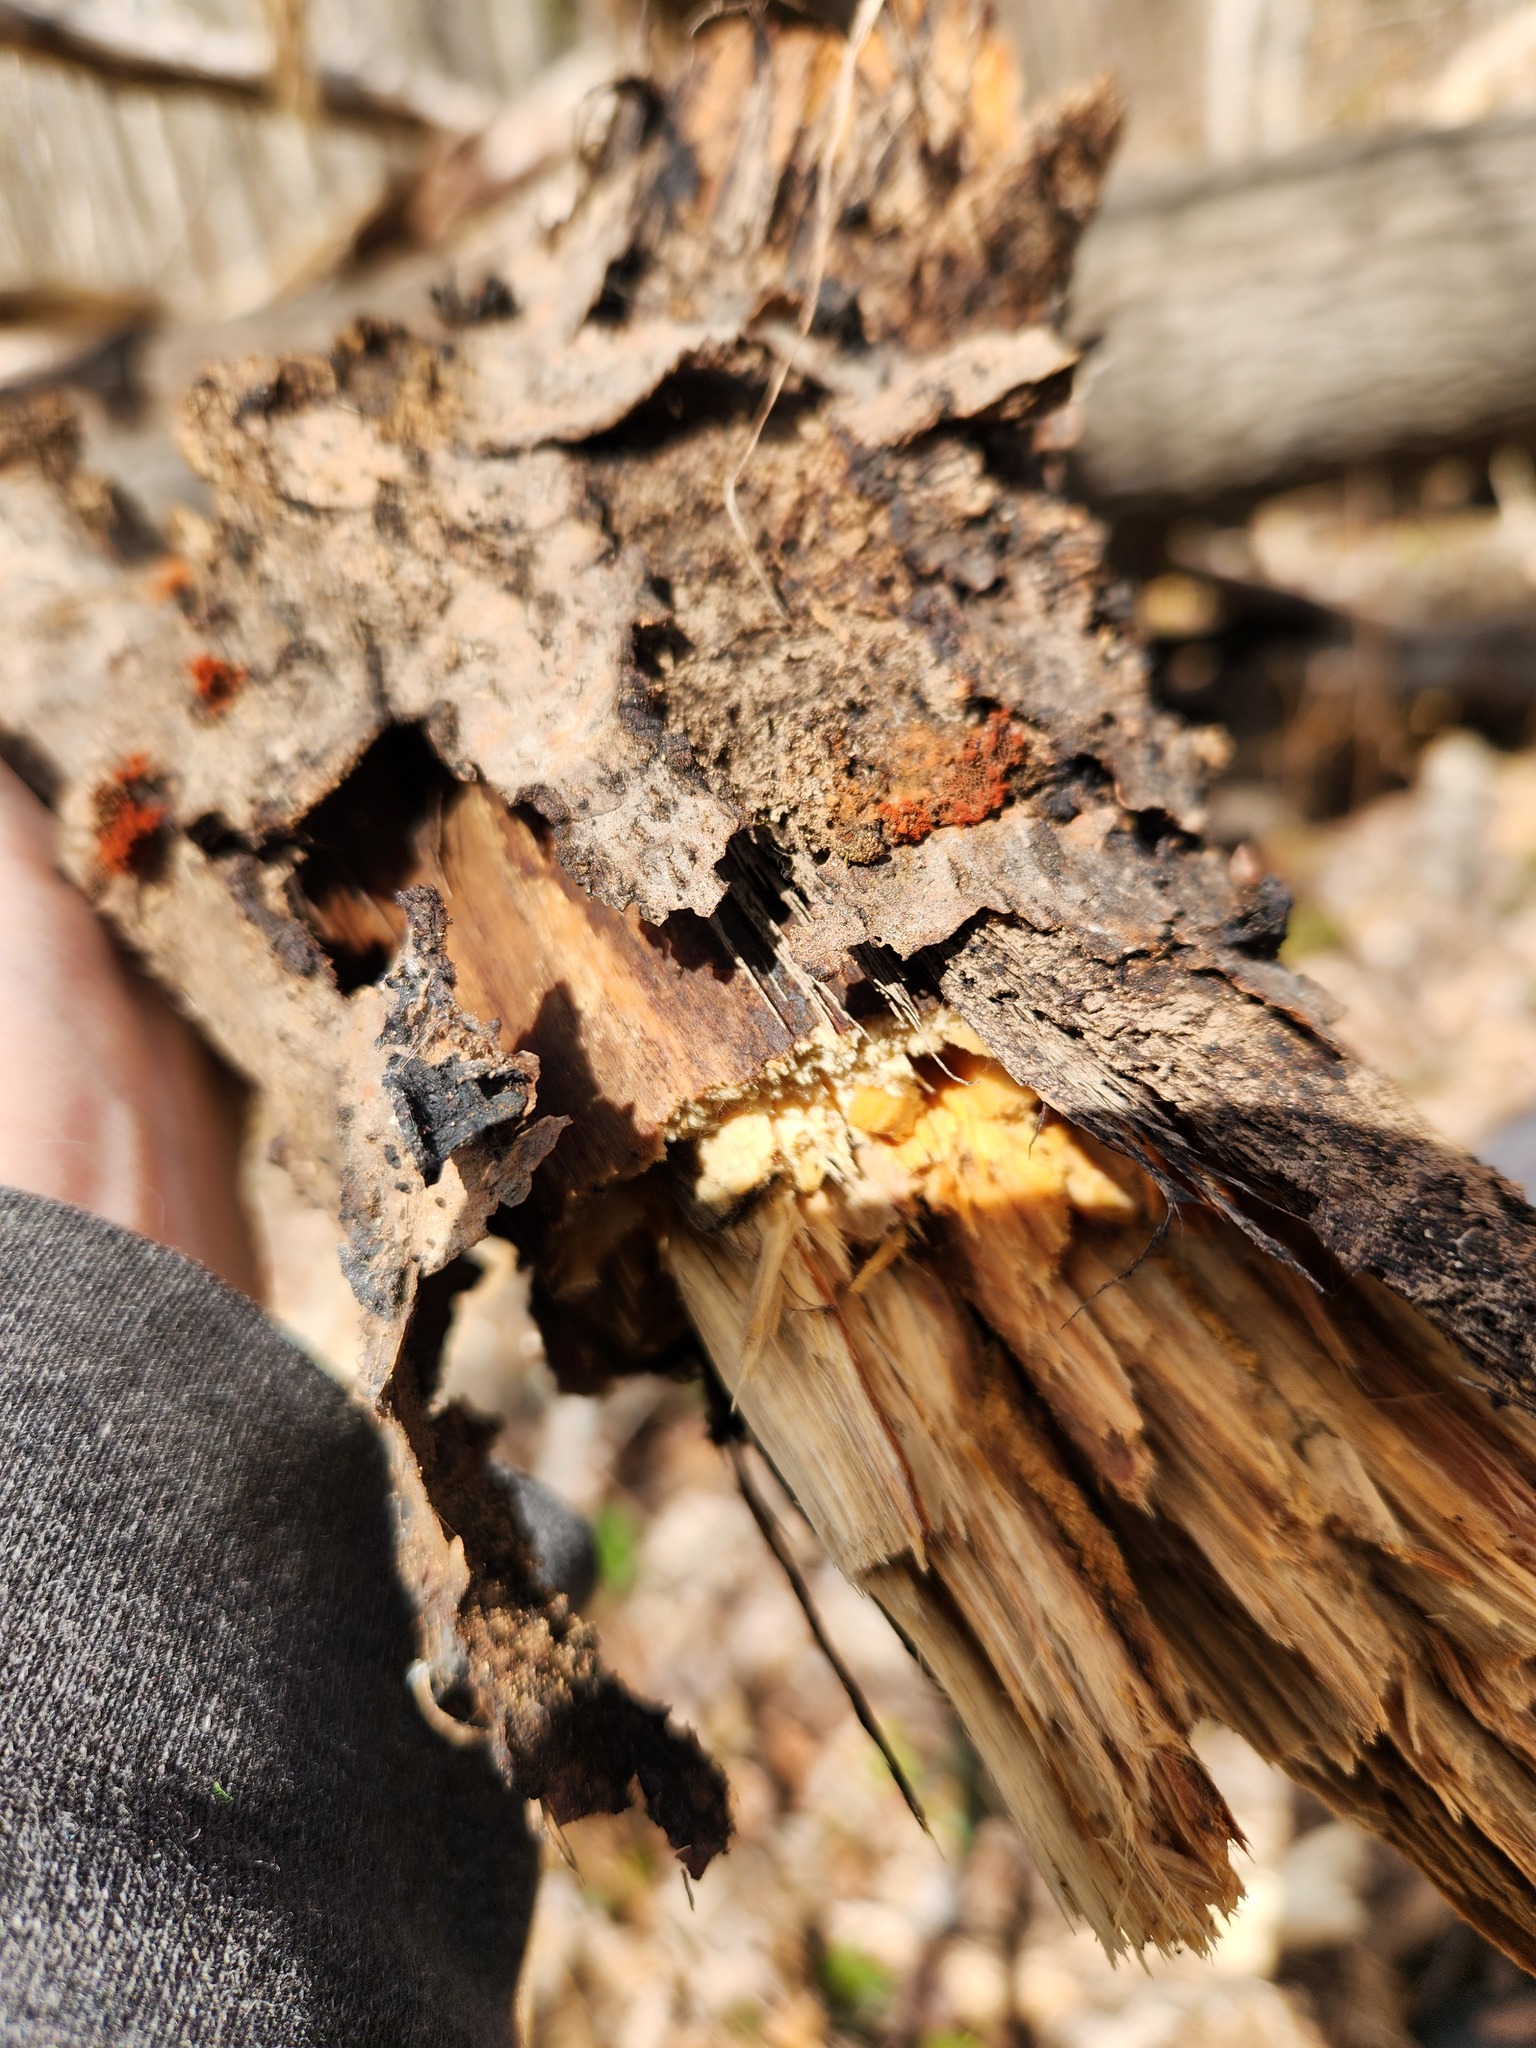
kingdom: Protozoa
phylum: Mycetozoa
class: Myxomycetes
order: Trichiales
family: Trichiaceae
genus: Metatrichia
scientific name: Metatrichia vesparia
